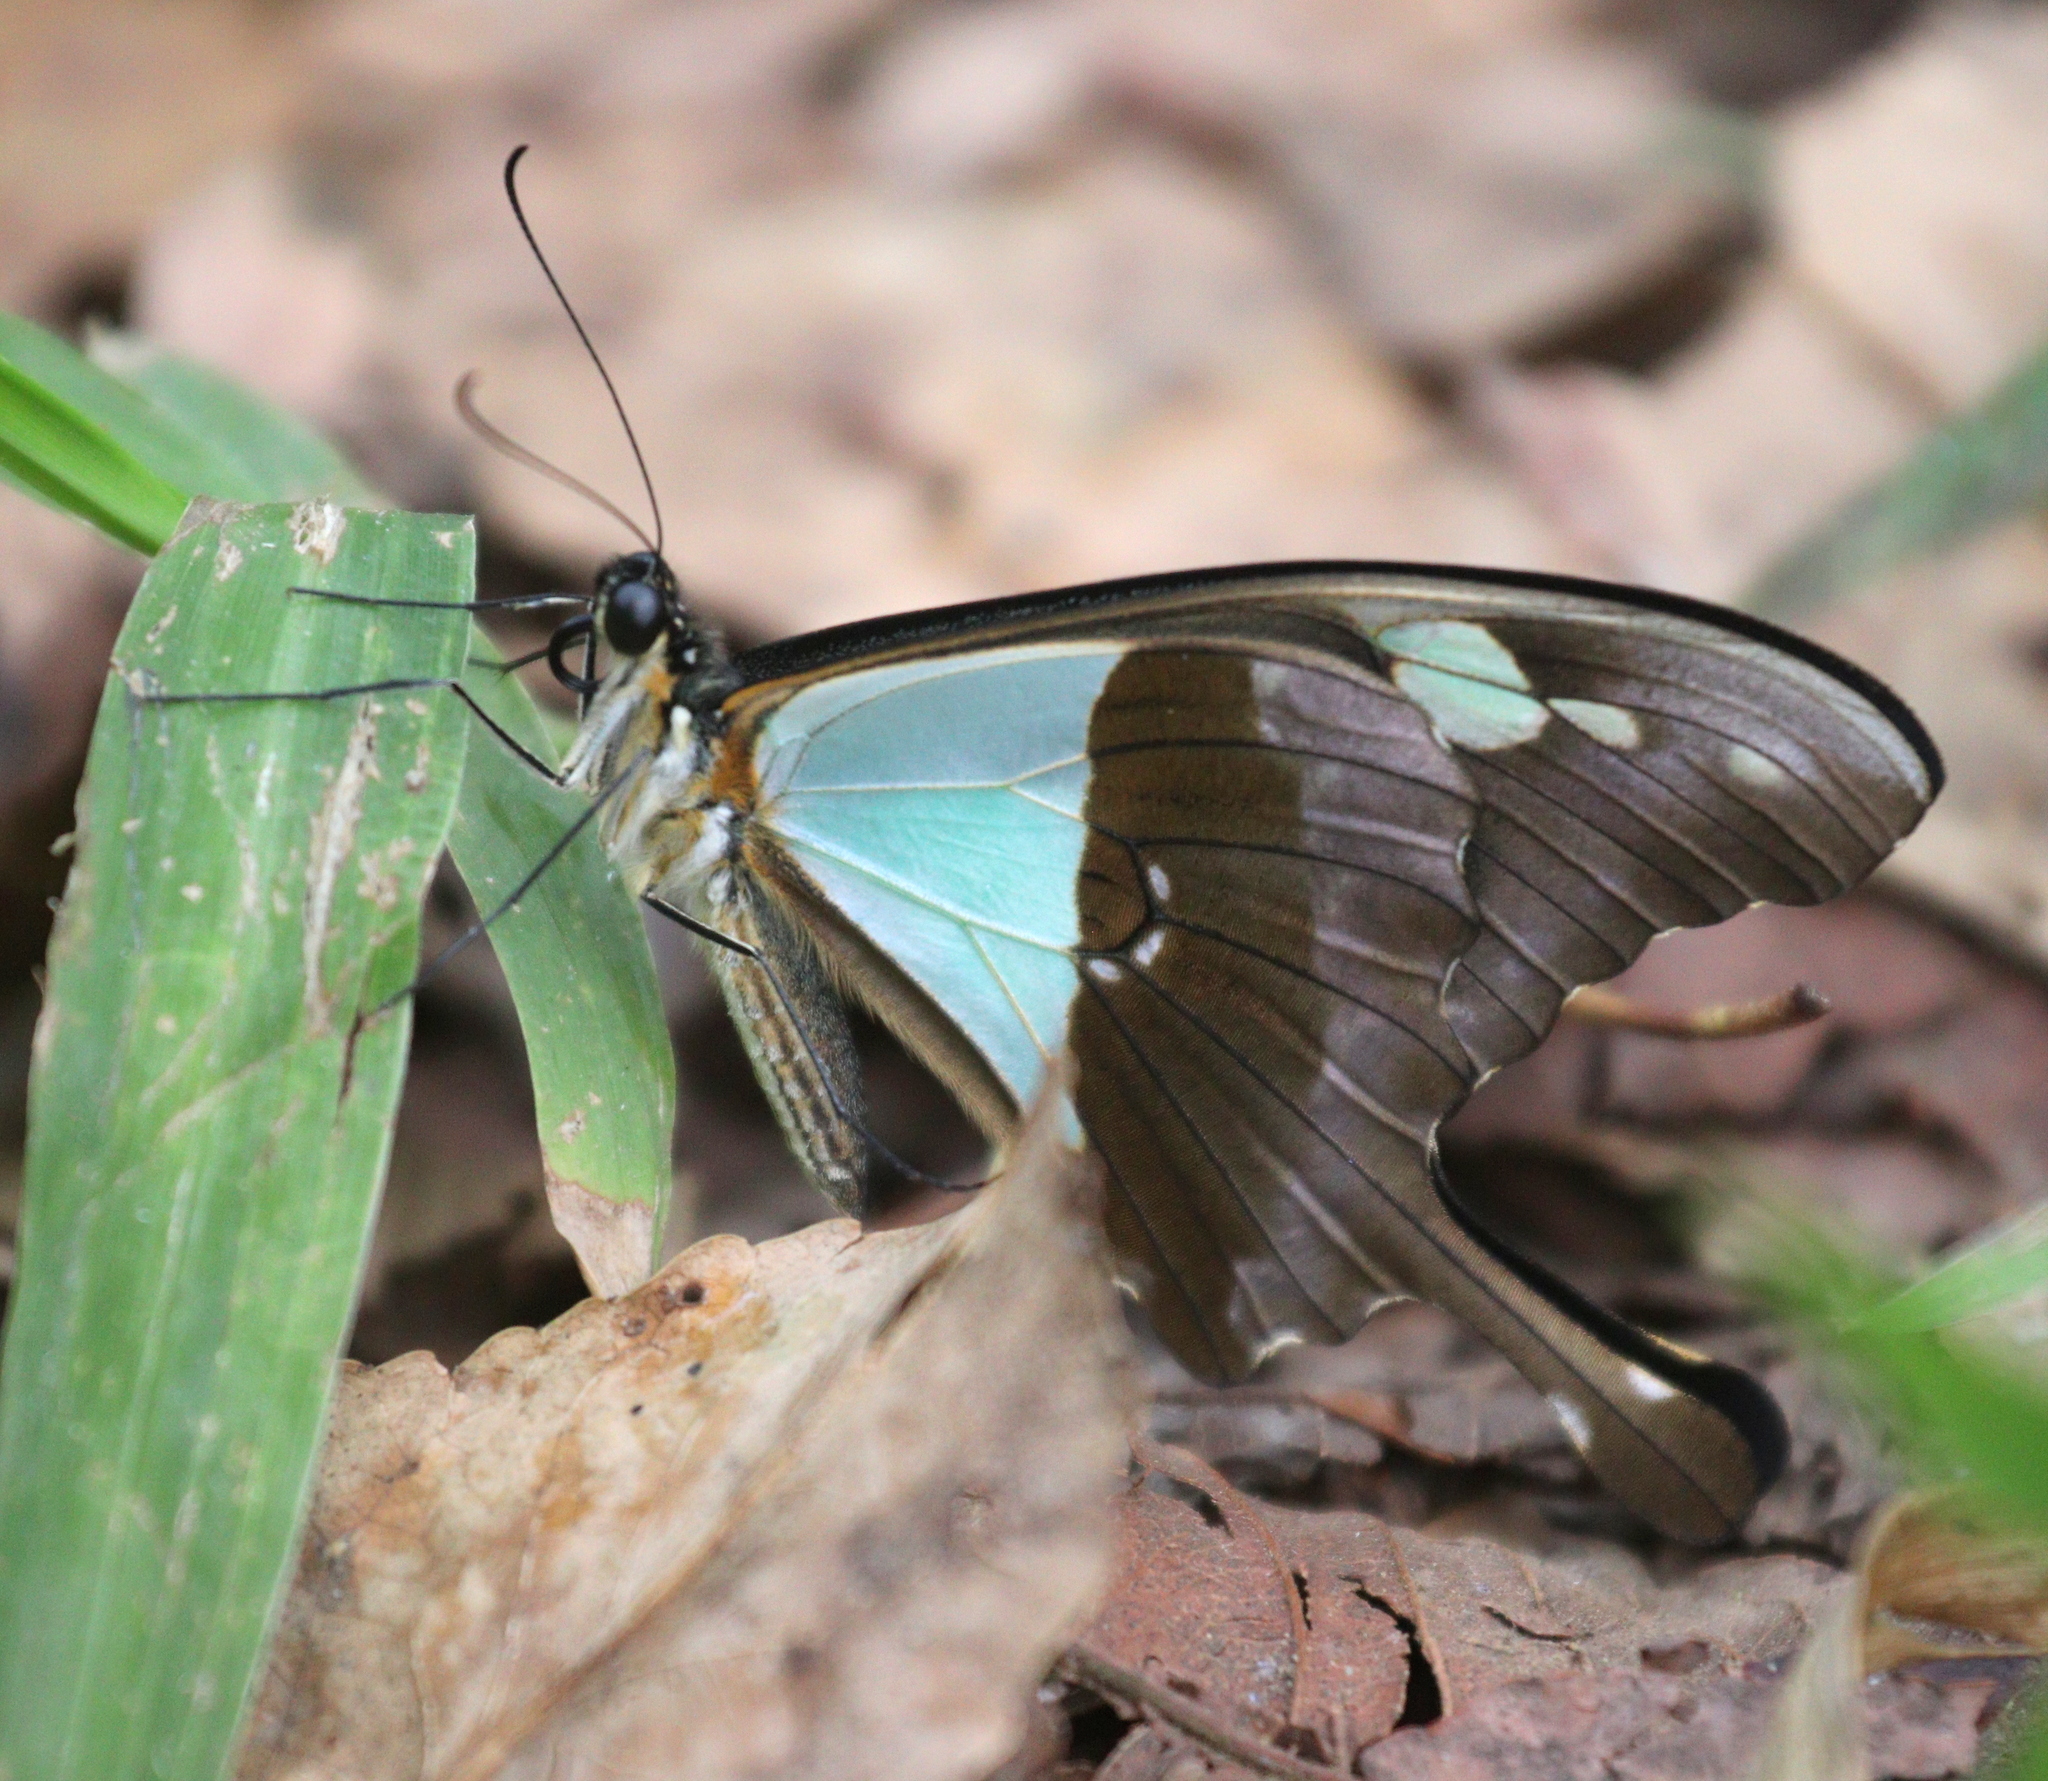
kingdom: Animalia
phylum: Arthropoda
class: Insecta
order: Lepidoptera
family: Papilionidae
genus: Papilio
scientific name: Papilio phorcas
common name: Apple-green swallowtail
